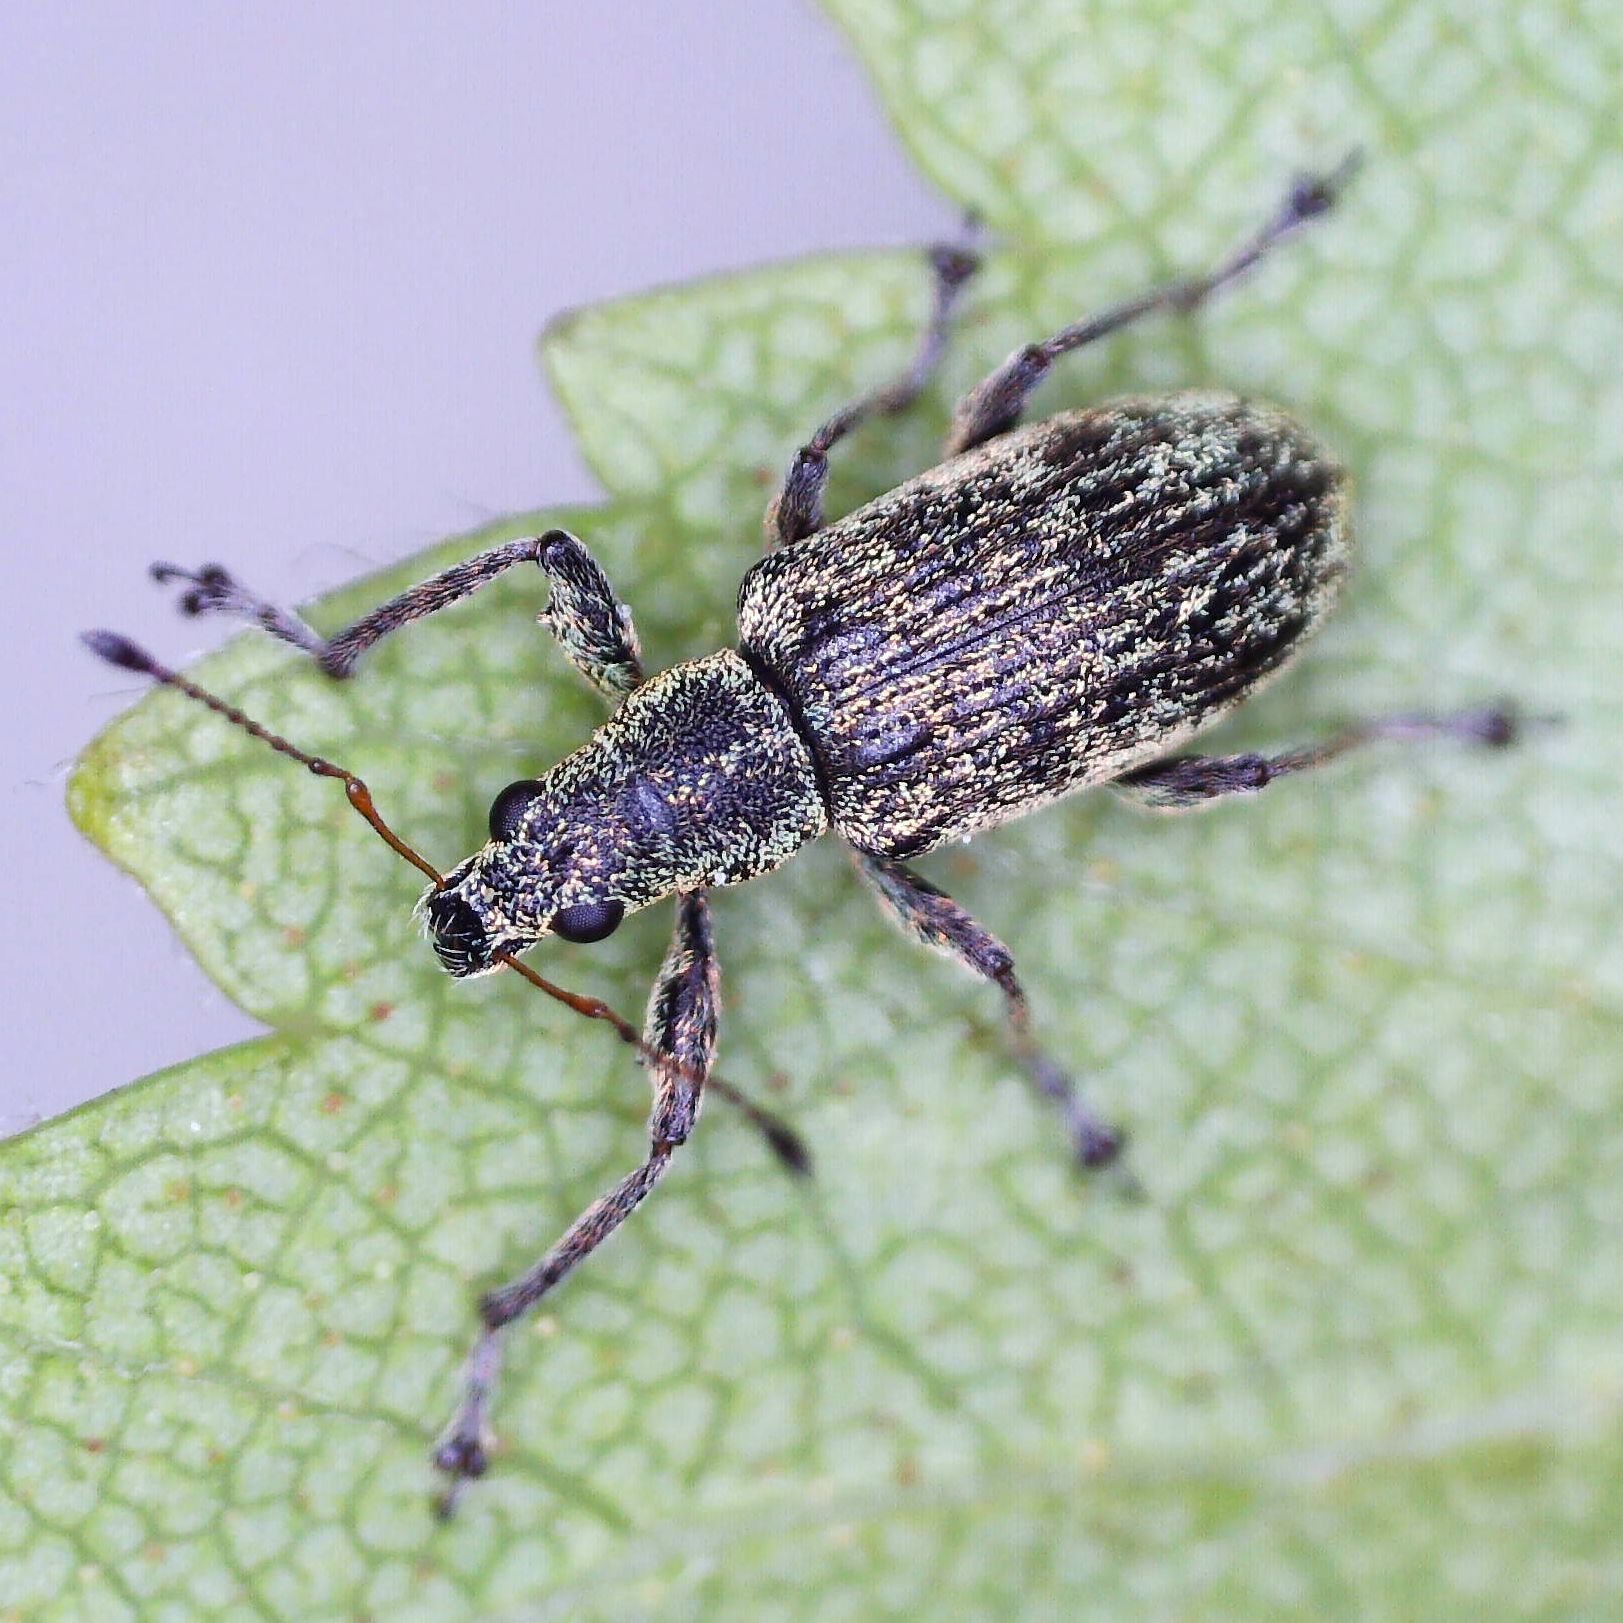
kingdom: Animalia
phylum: Arthropoda
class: Insecta
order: Coleoptera
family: Curculionidae
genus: Polydrusus
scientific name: Polydrusus cervinus
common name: Weevil
